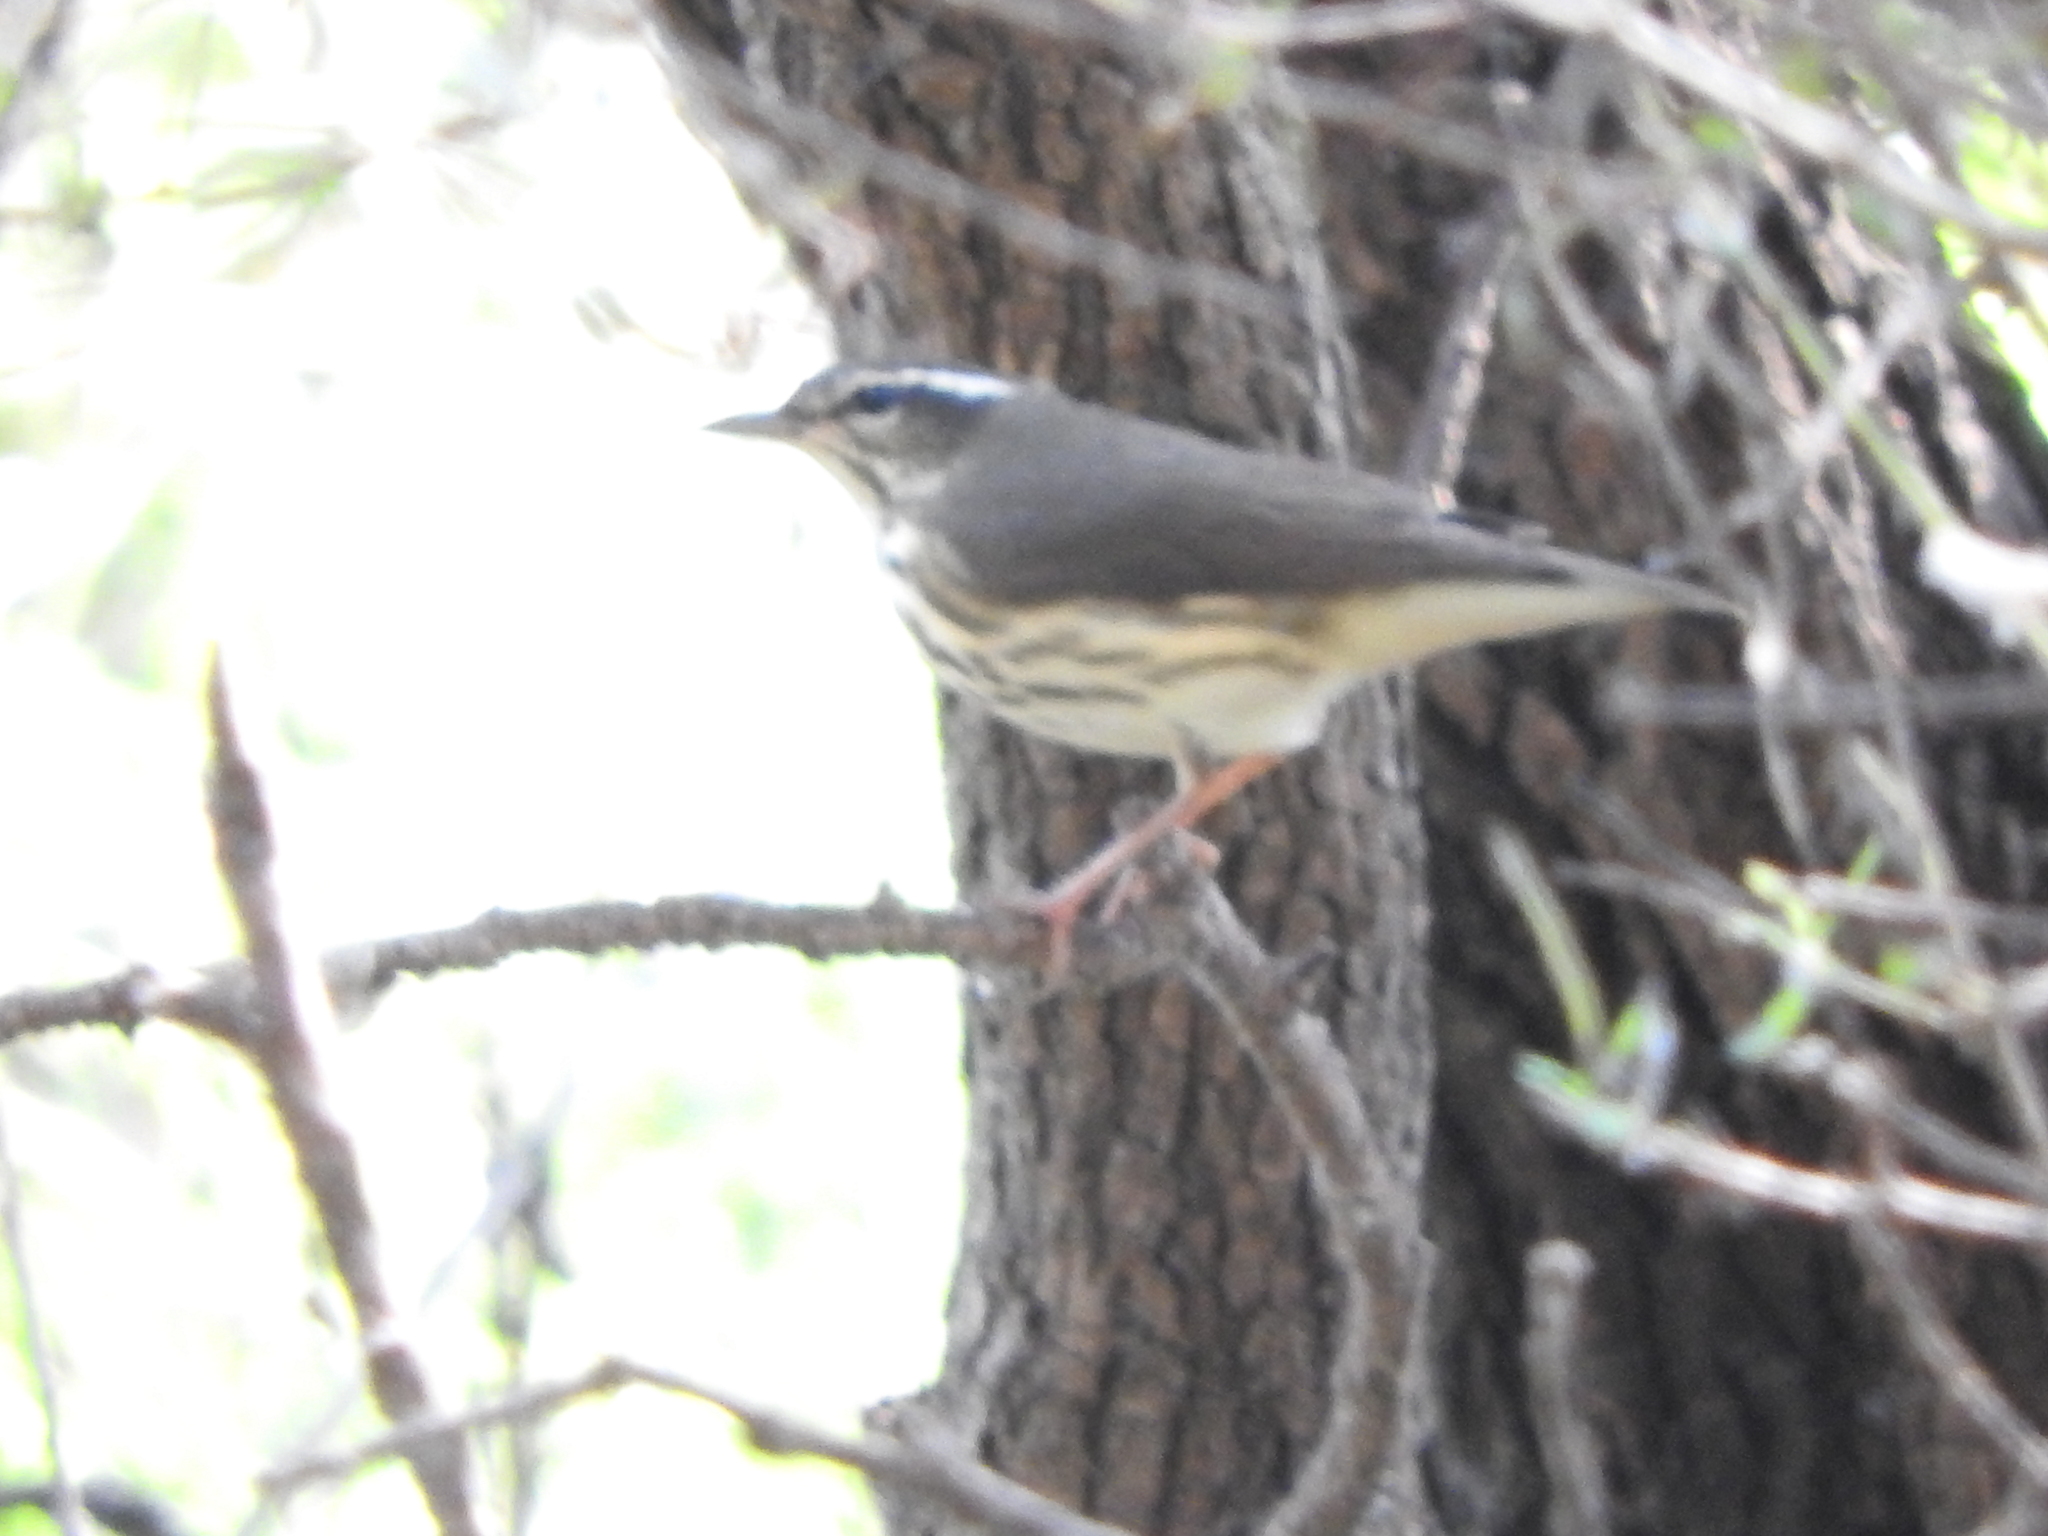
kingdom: Animalia
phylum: Chordata
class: Aves
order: Passeriformes
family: Parulidae
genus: Parkesia
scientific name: Parkesia motacilla
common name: Louisiana waterthrush
